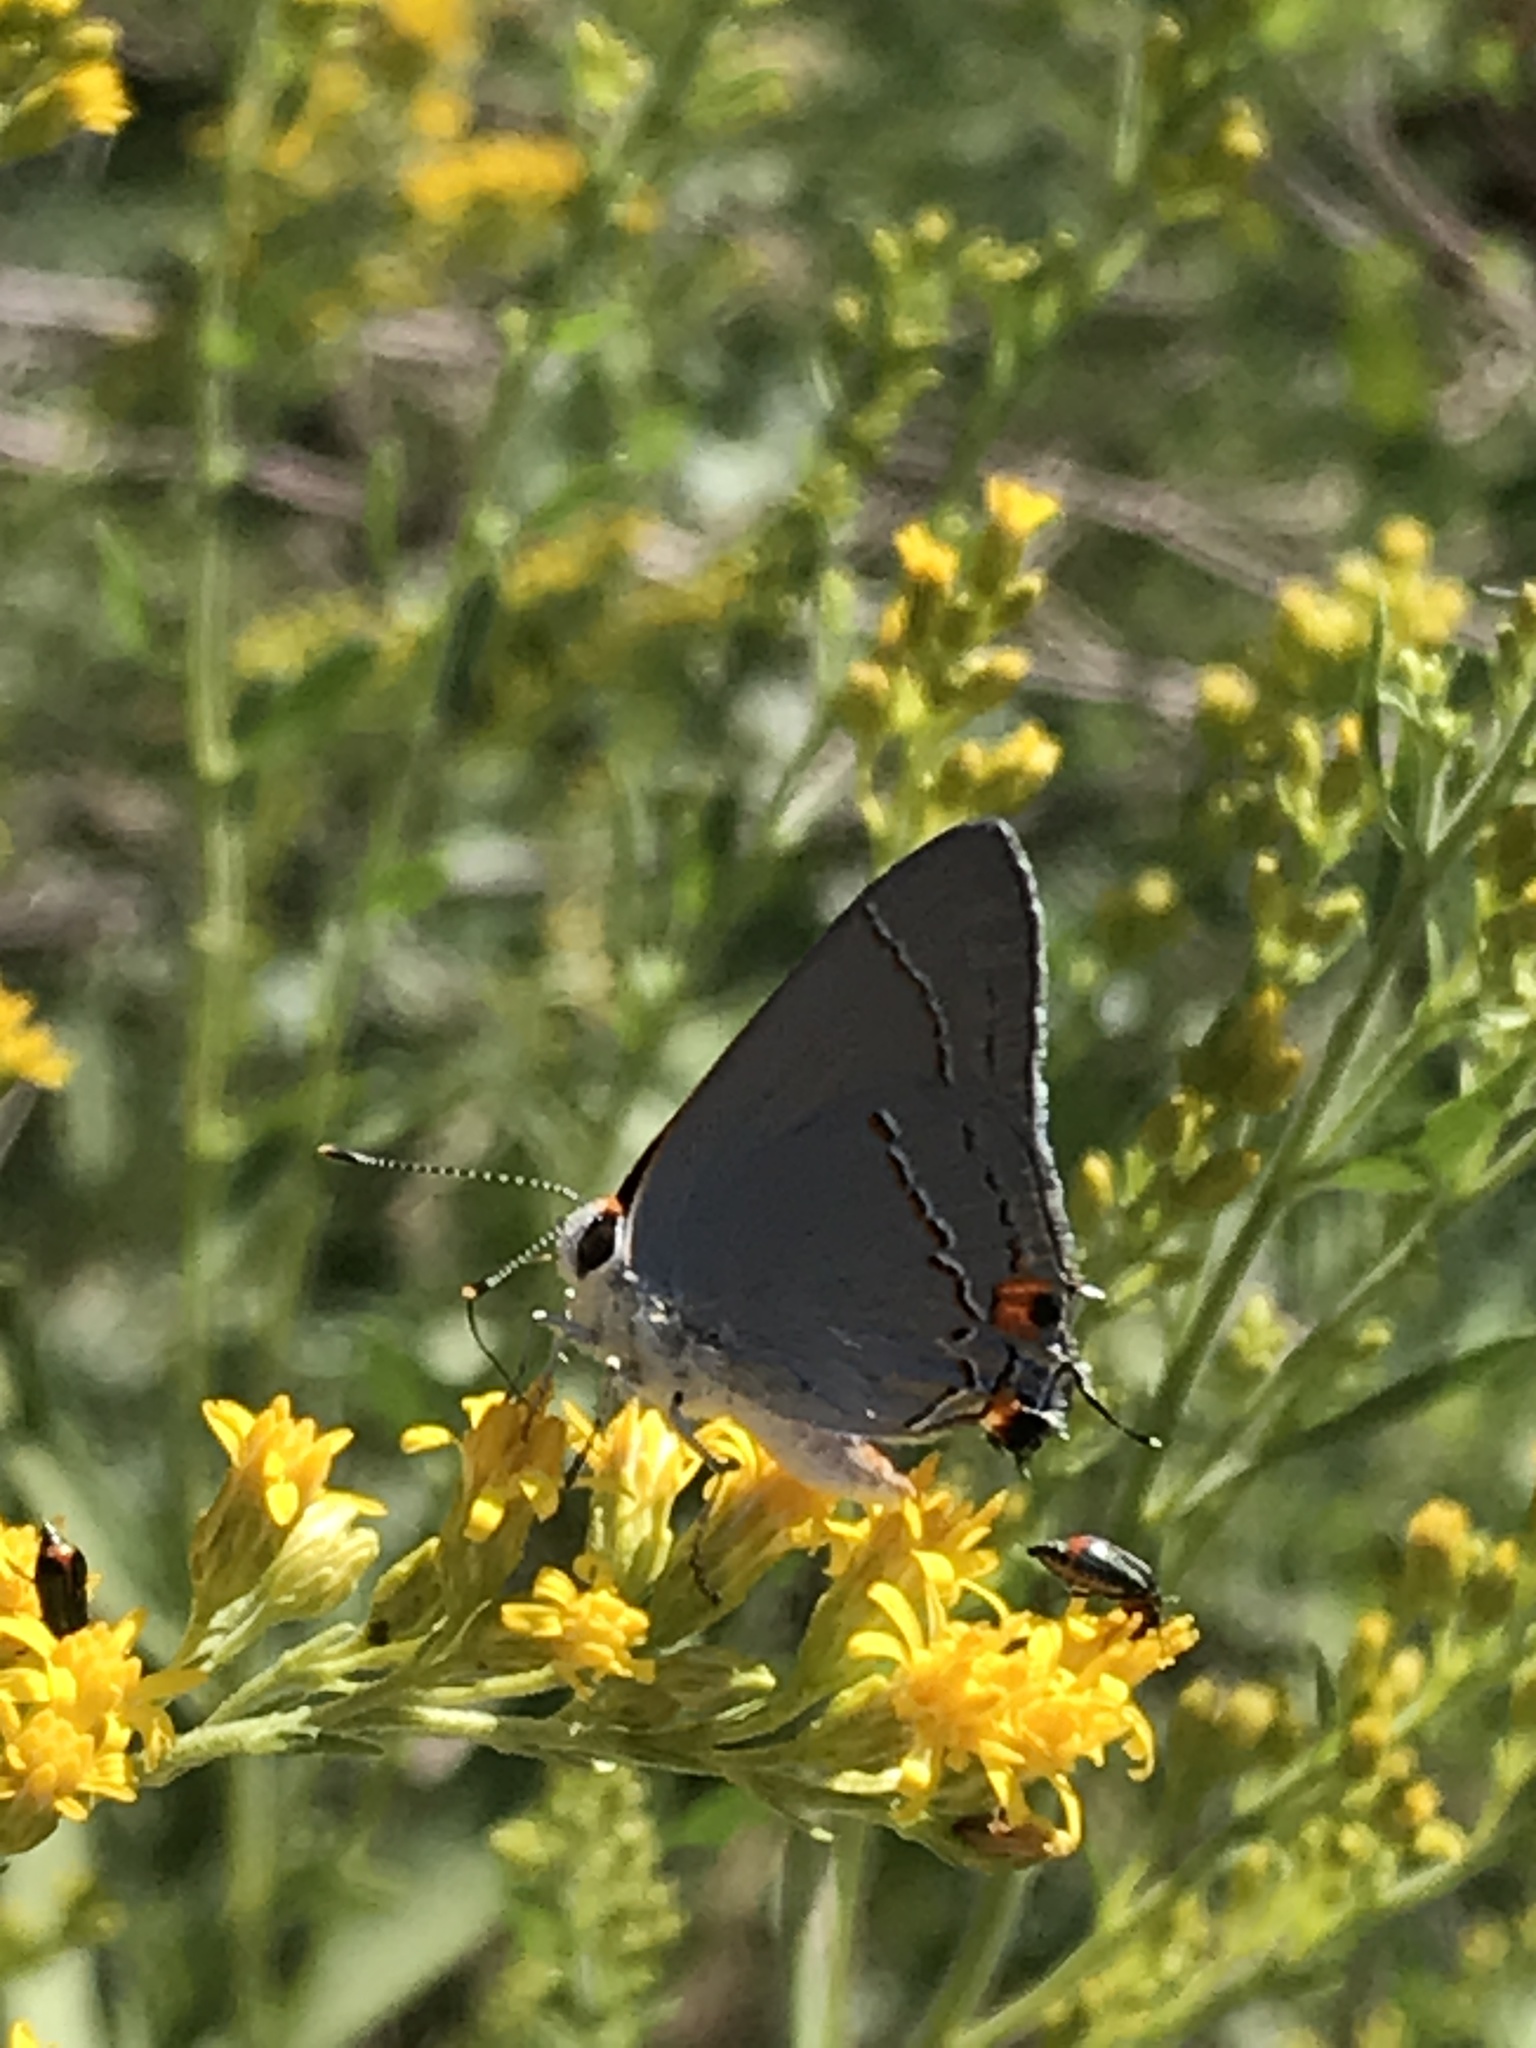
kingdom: Animalia
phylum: Arthropoda
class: Insecta
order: Lepidoptera
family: Lycaenidae
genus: Strymon
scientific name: Strymon melinus
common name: Gray hairstreak
